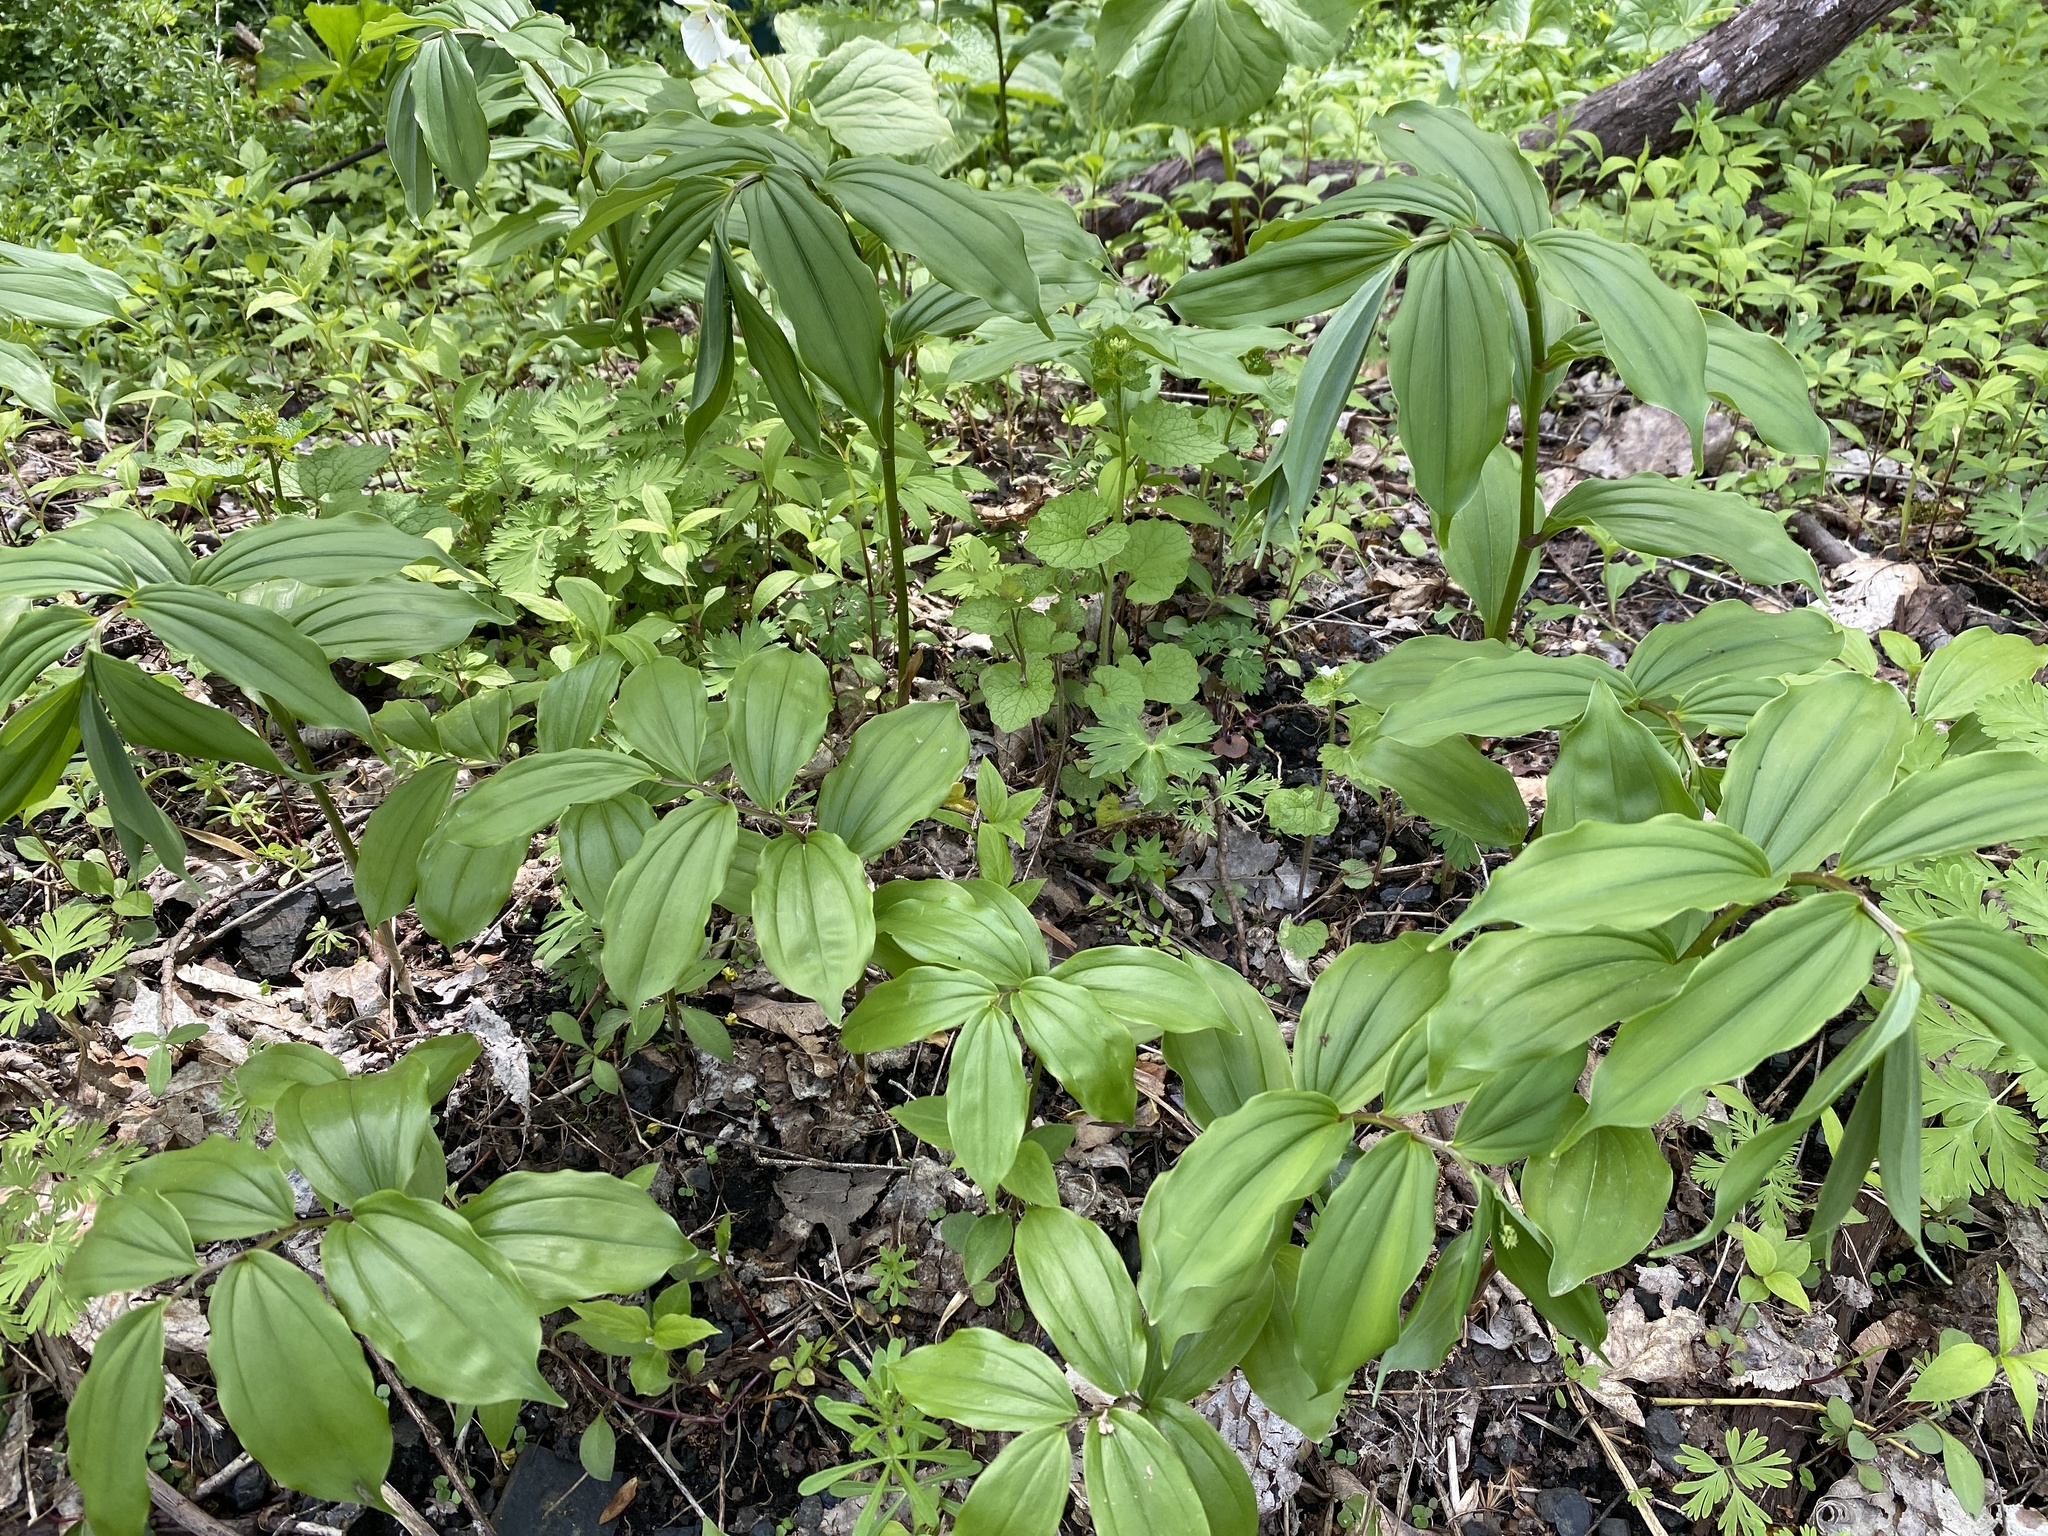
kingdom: Plantae
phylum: Tracheophyta
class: Liliopsida
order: Asparagales
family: Asparagaceae
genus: Maianthemum
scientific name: Maianthemum racemosum
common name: False spikenard
